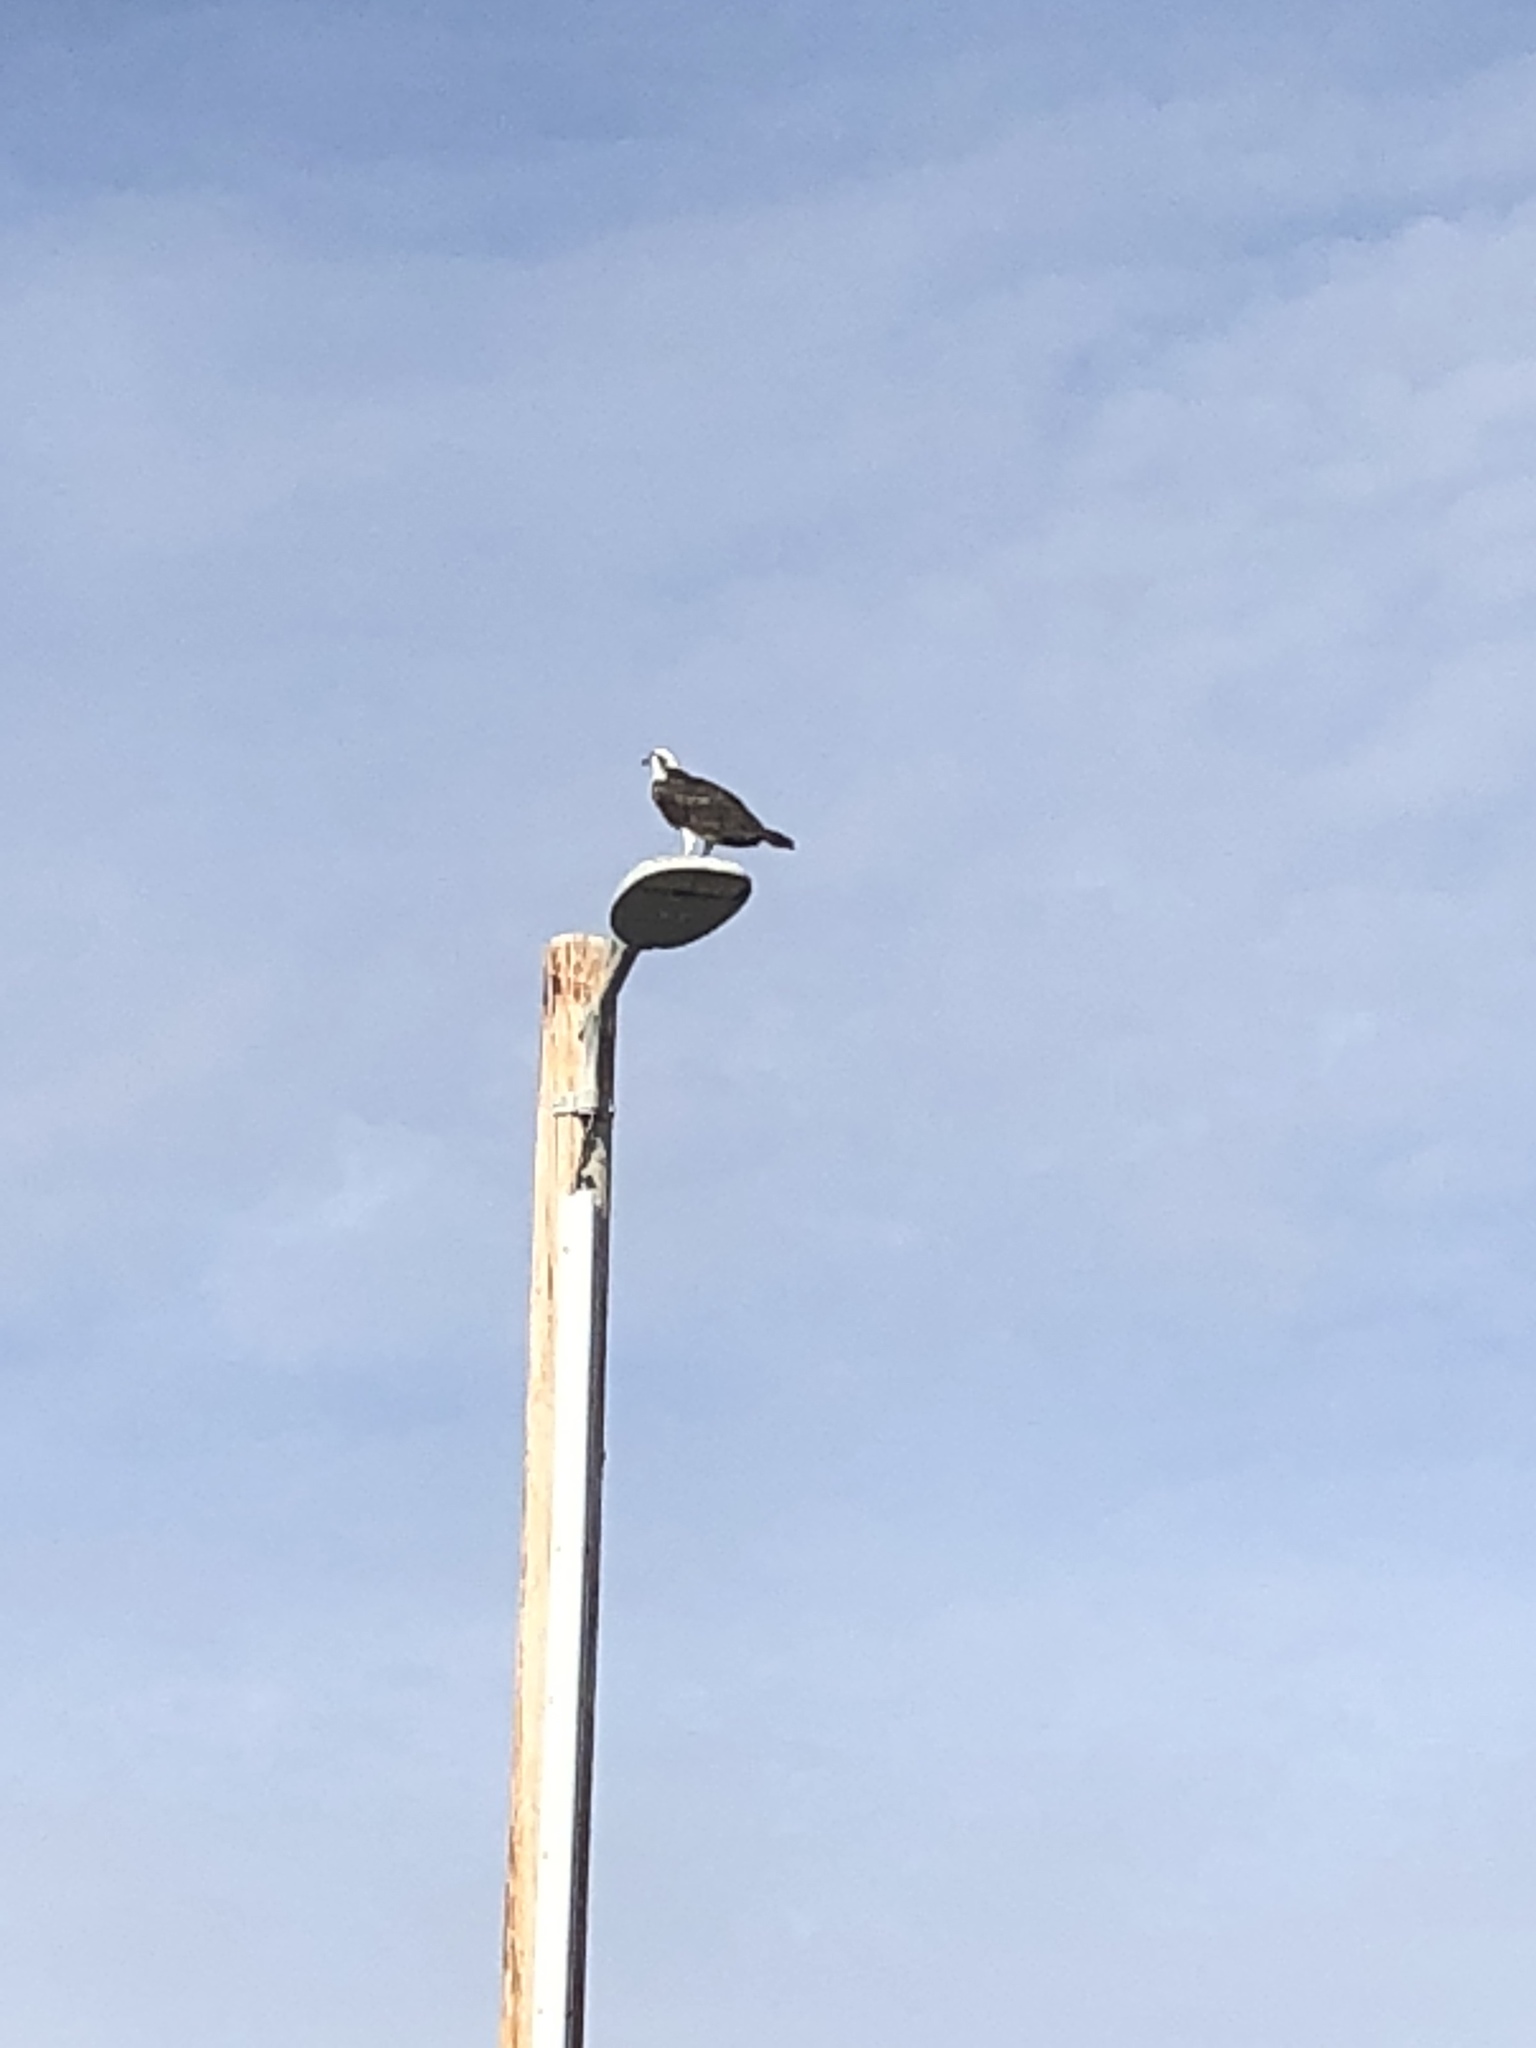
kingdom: Animalia
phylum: Chordata
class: Aves
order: Accipitriformes
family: Pandionidae
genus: Pandion
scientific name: Pandion haliaetus
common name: Osprey
